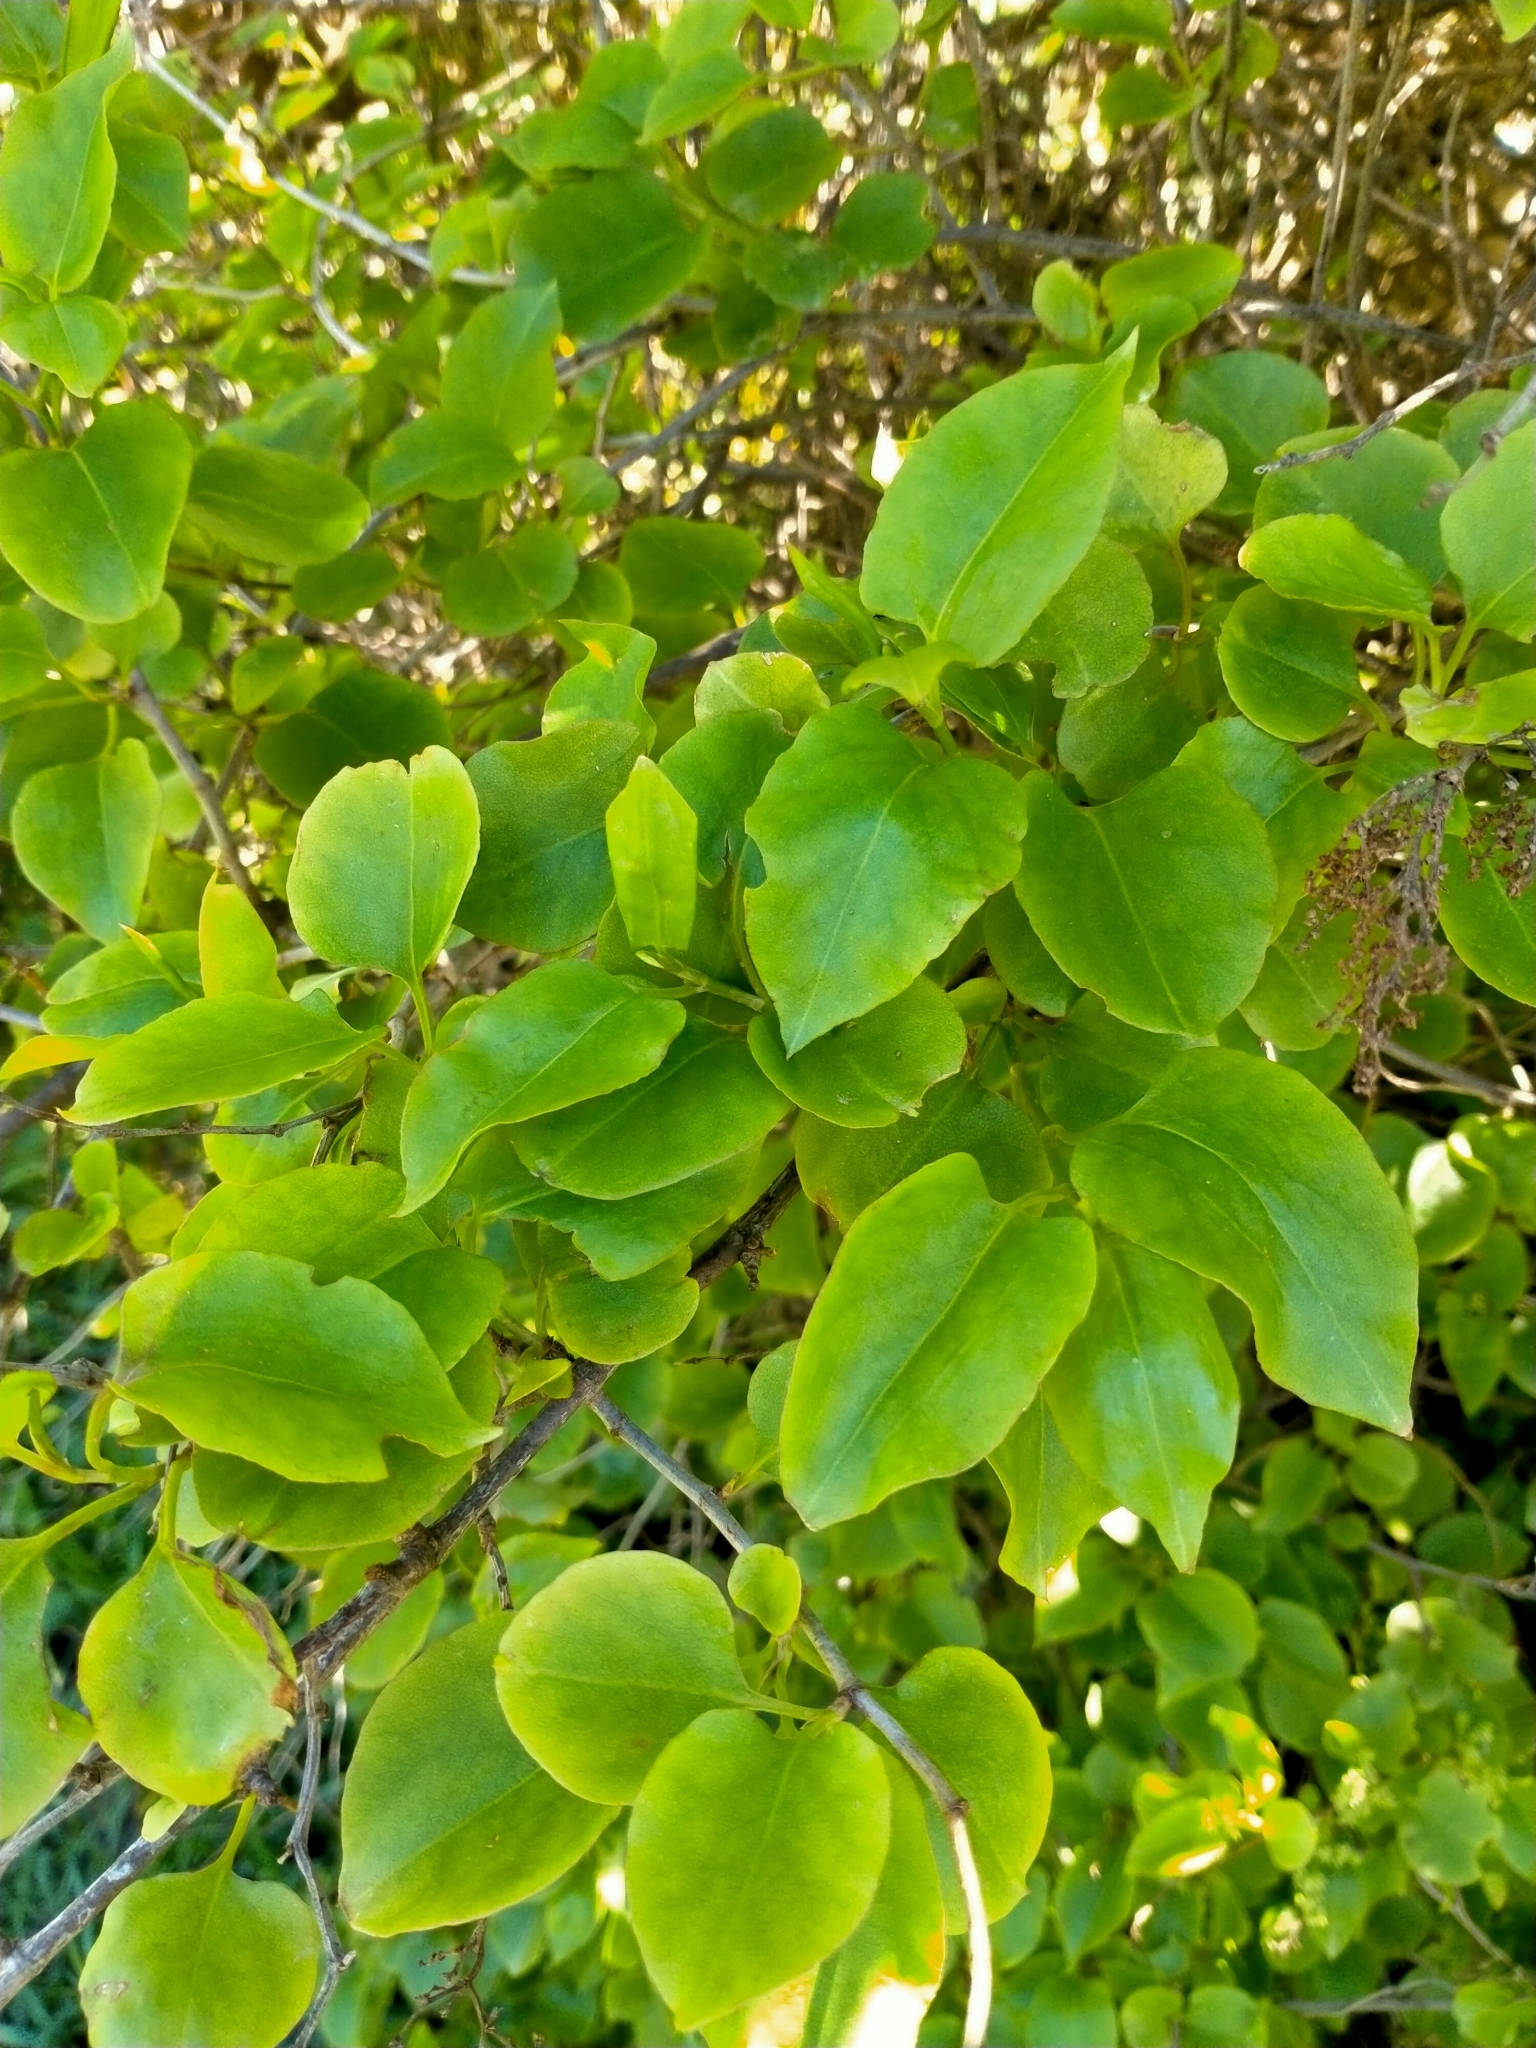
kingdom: Plantae
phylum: Tracheophyta
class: Magnoliopsida
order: Caryophyllales
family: Polygonaceae
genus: Muehlenbeckia
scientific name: Muehlenbeckia australis
